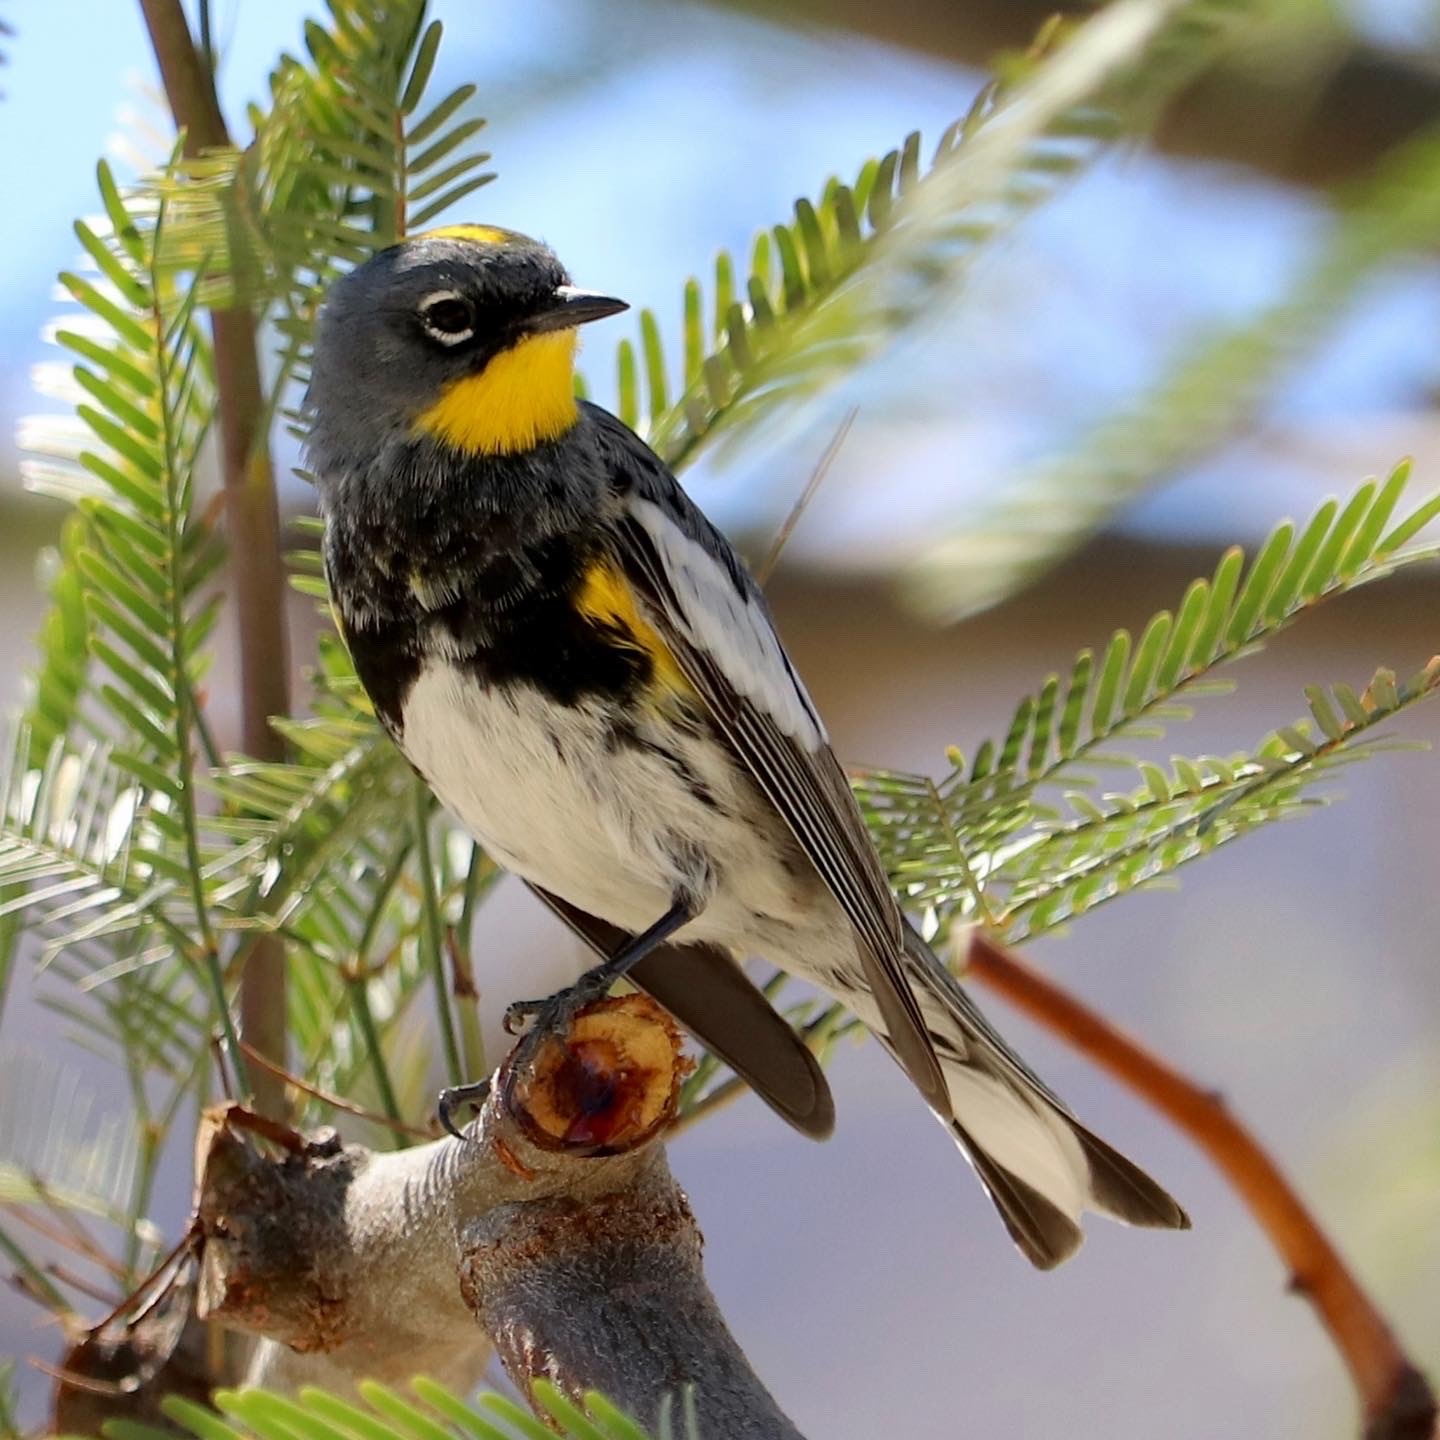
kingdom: Animalia
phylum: Chordata
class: Aves
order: Passeriformes
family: Parulidae
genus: Setophaga
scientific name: Setophaga coronata
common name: Myrtle warbler
